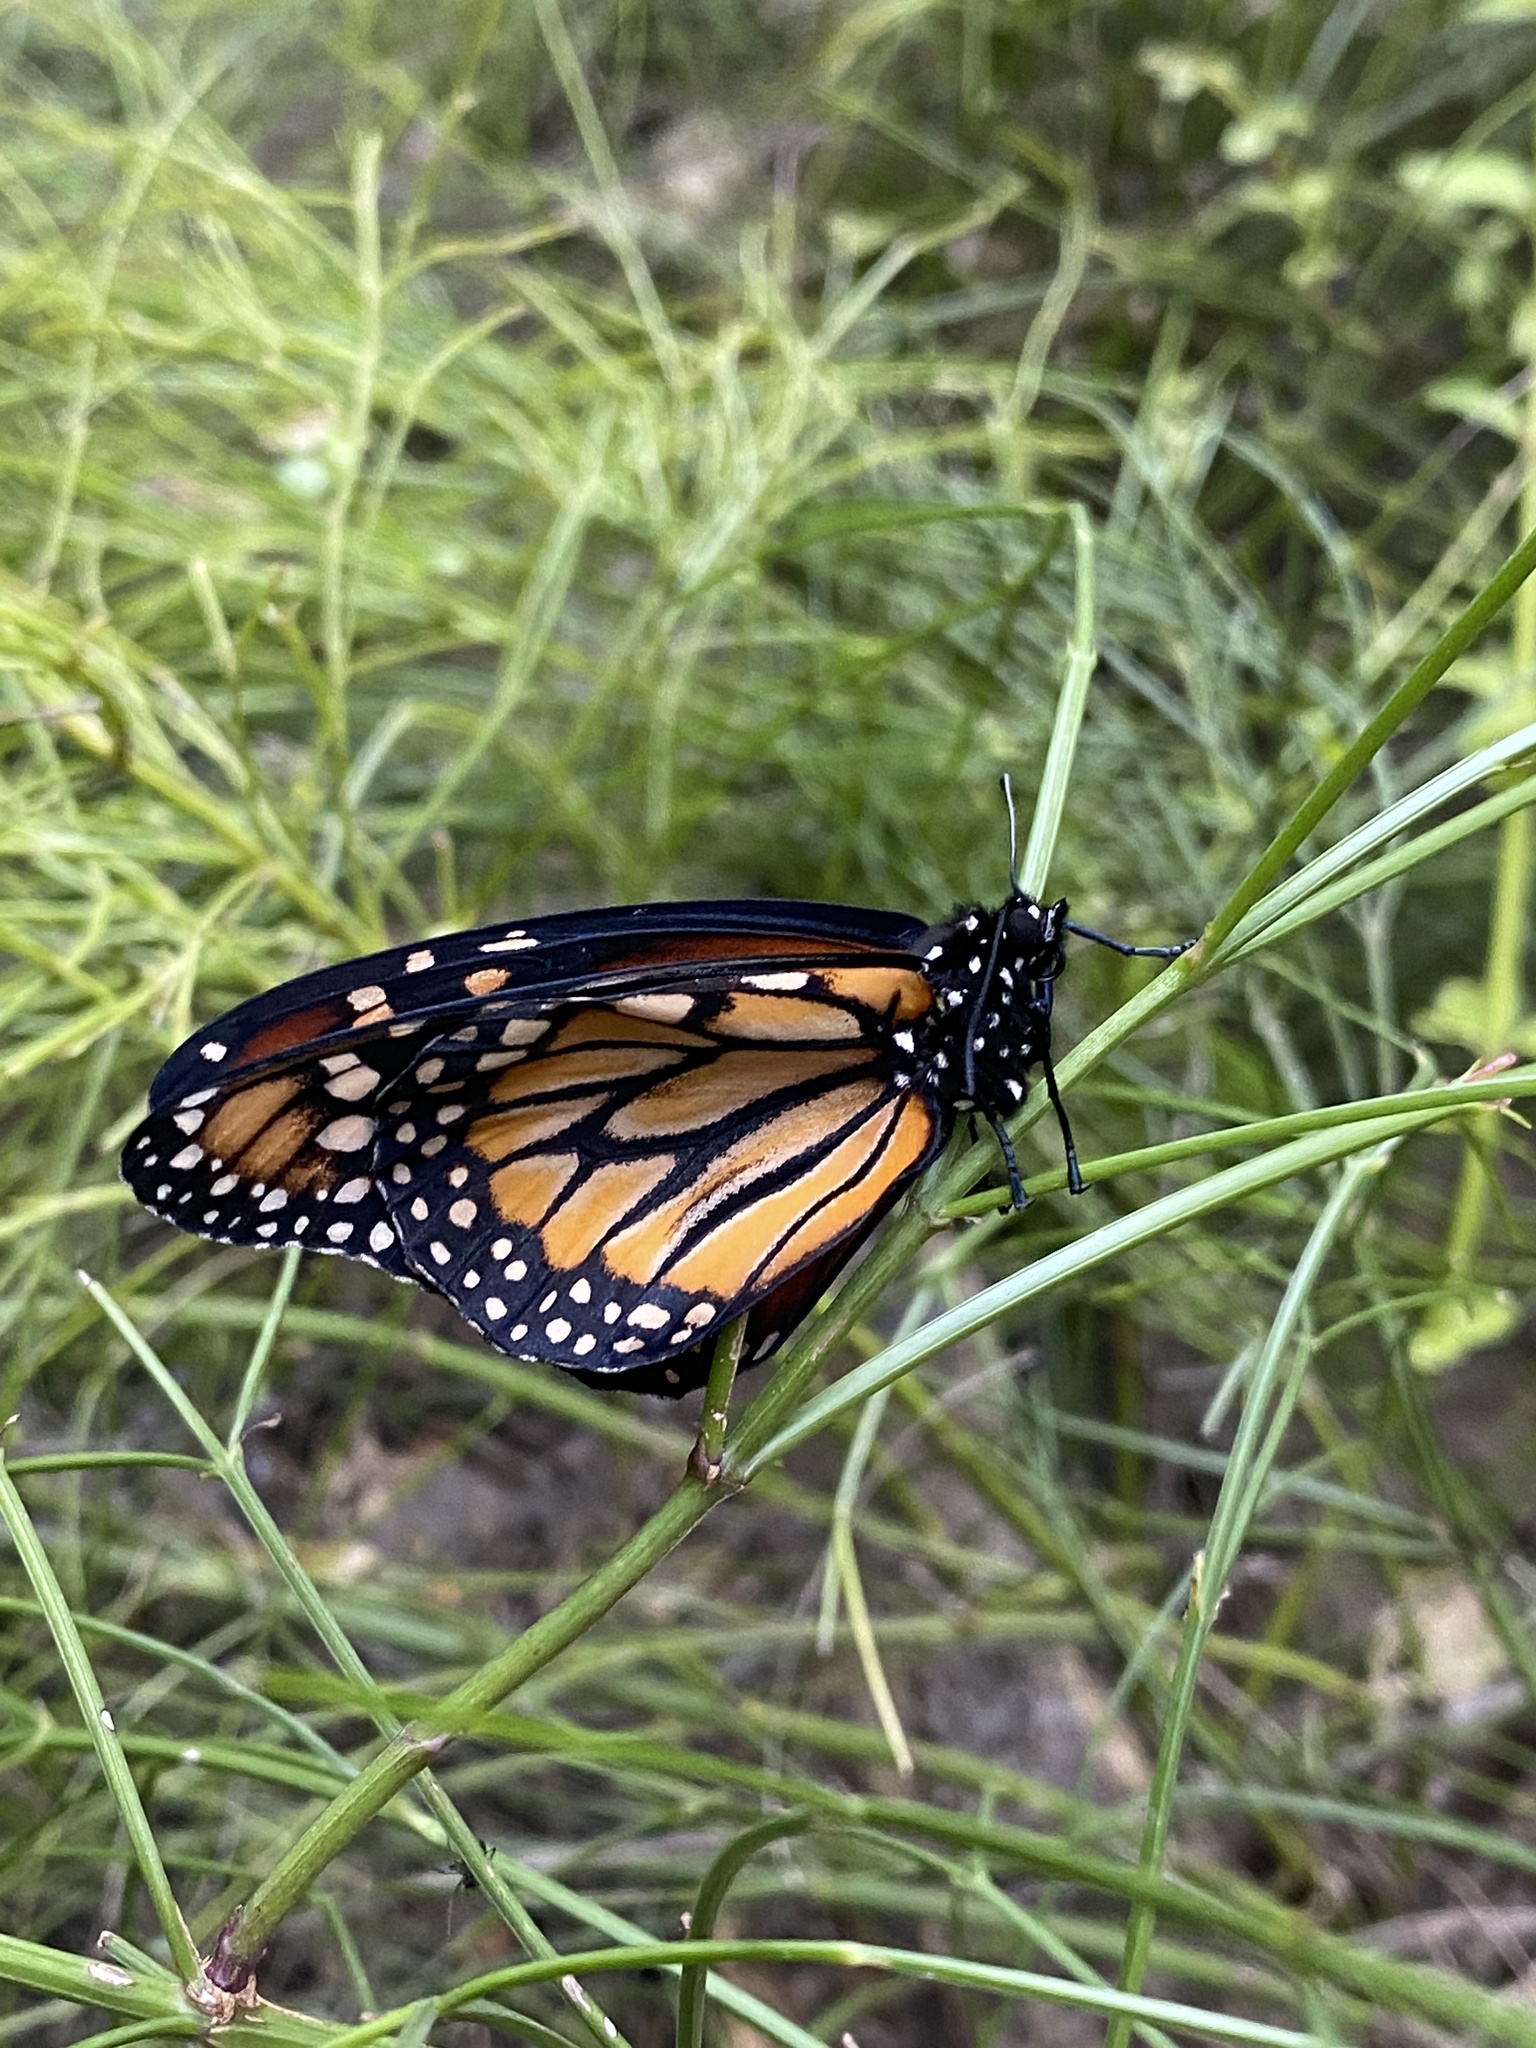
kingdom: Animalia
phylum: Arthropoda
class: Insecta
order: Lepidoptera
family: Nymphalidae
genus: Danaus
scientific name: Danaus erippus
